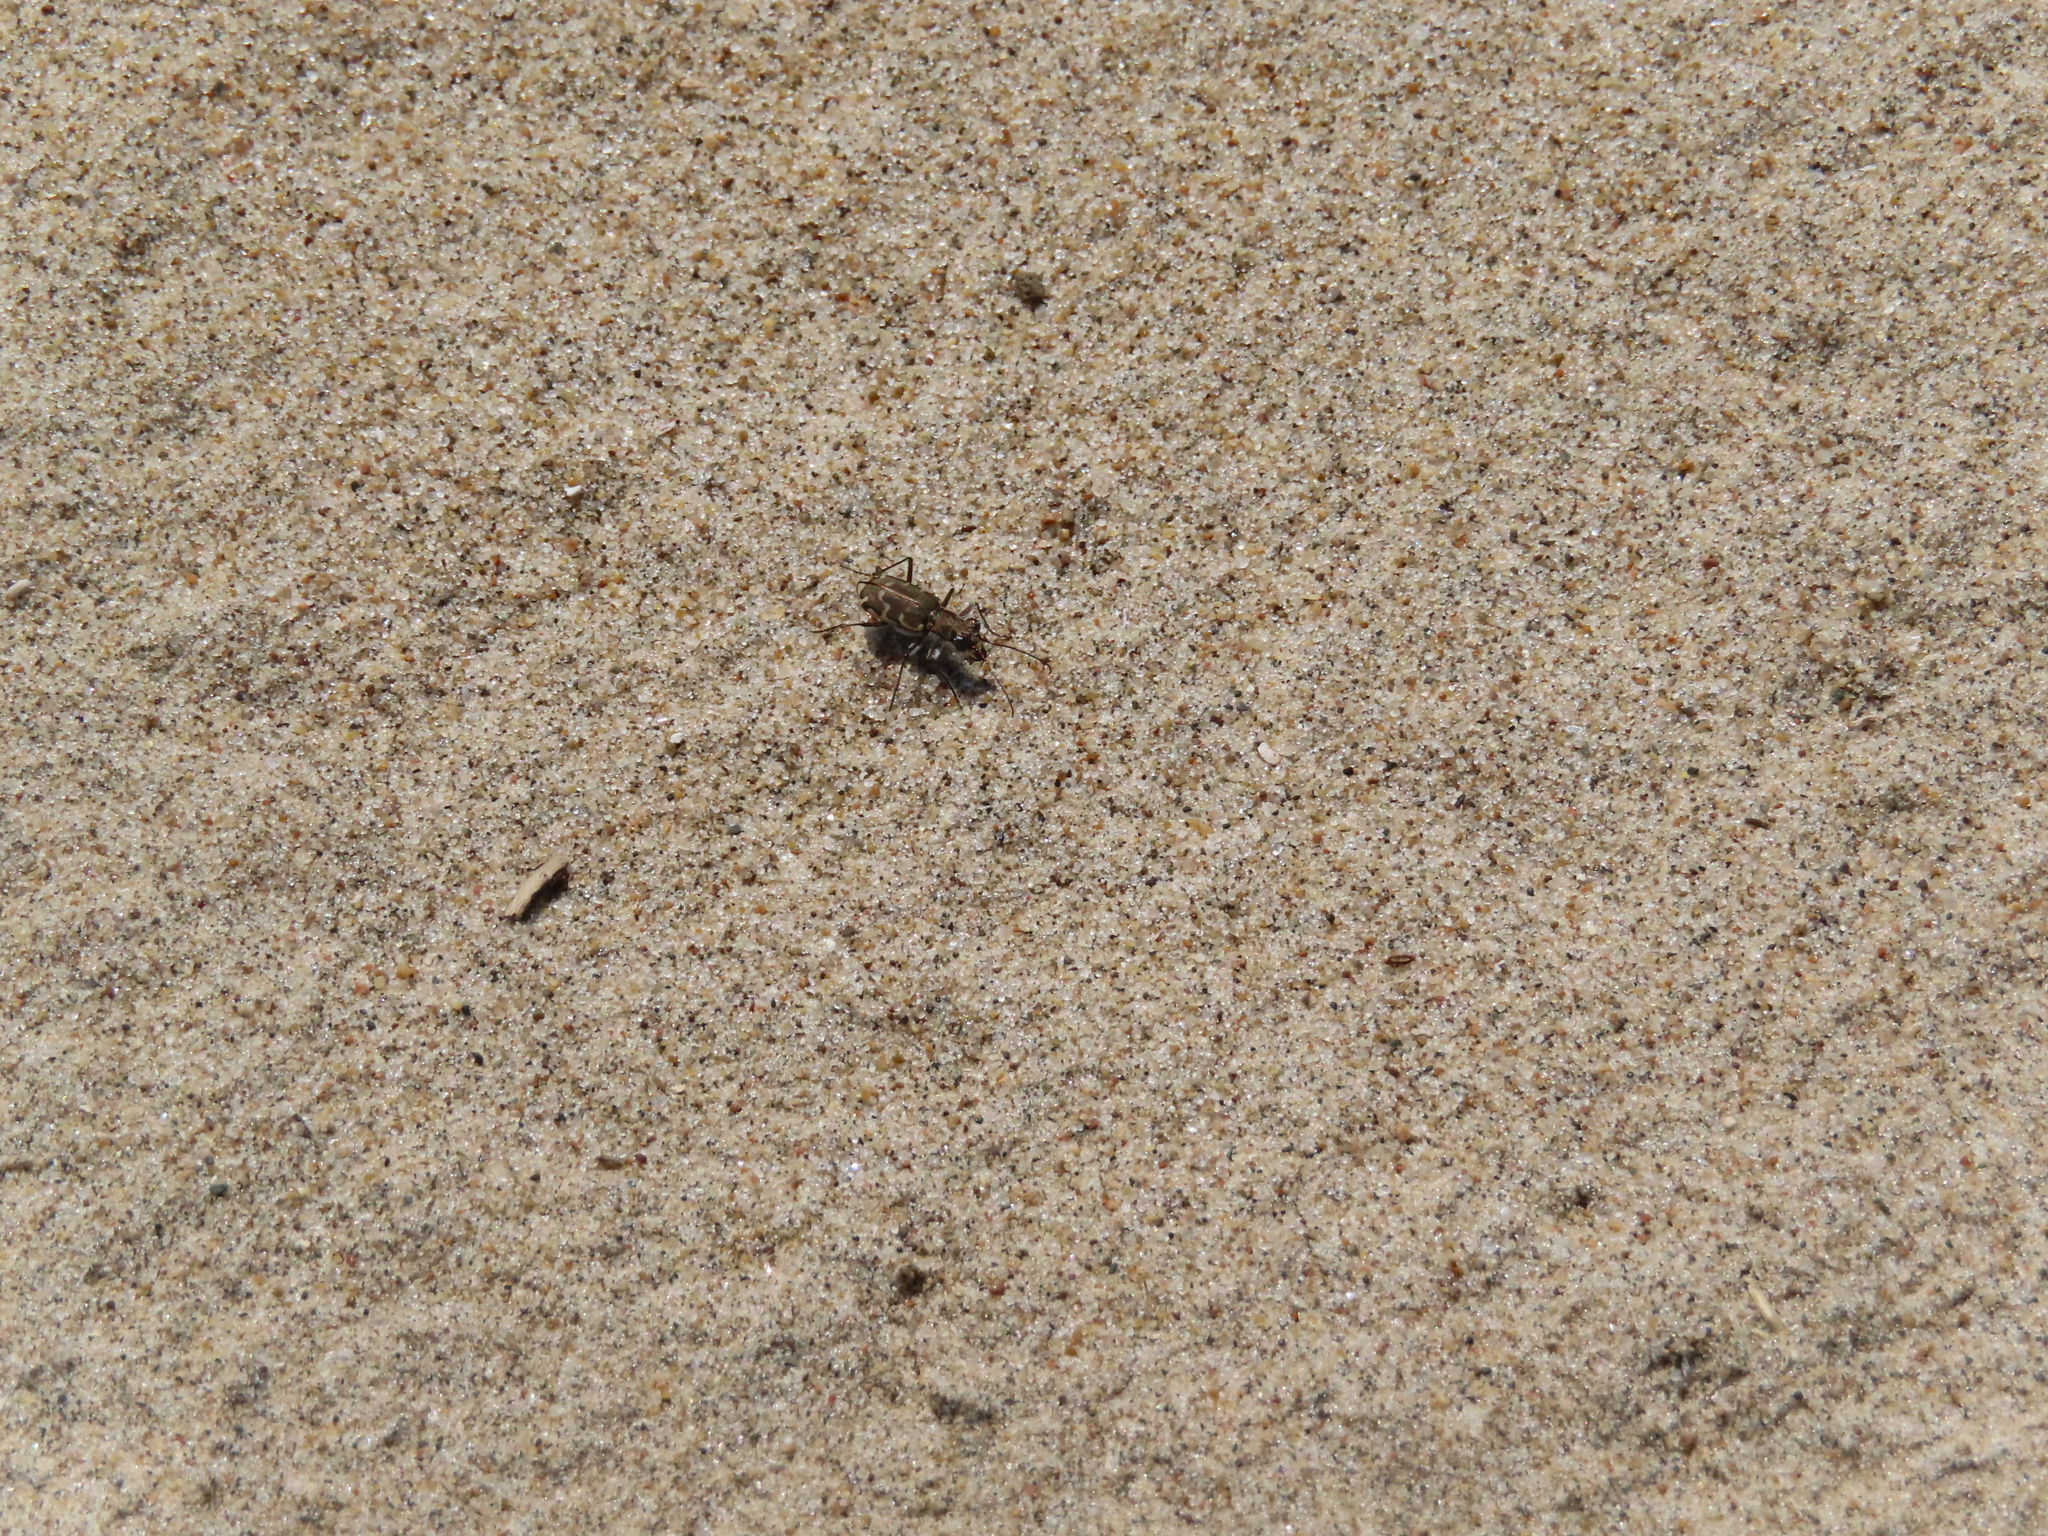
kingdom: Animalia
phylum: Arthropoda
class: Insecta
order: Coleoptera
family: Carabidae
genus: Cicindela
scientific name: Cicindela repanda
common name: Bronzed tiger beetle
